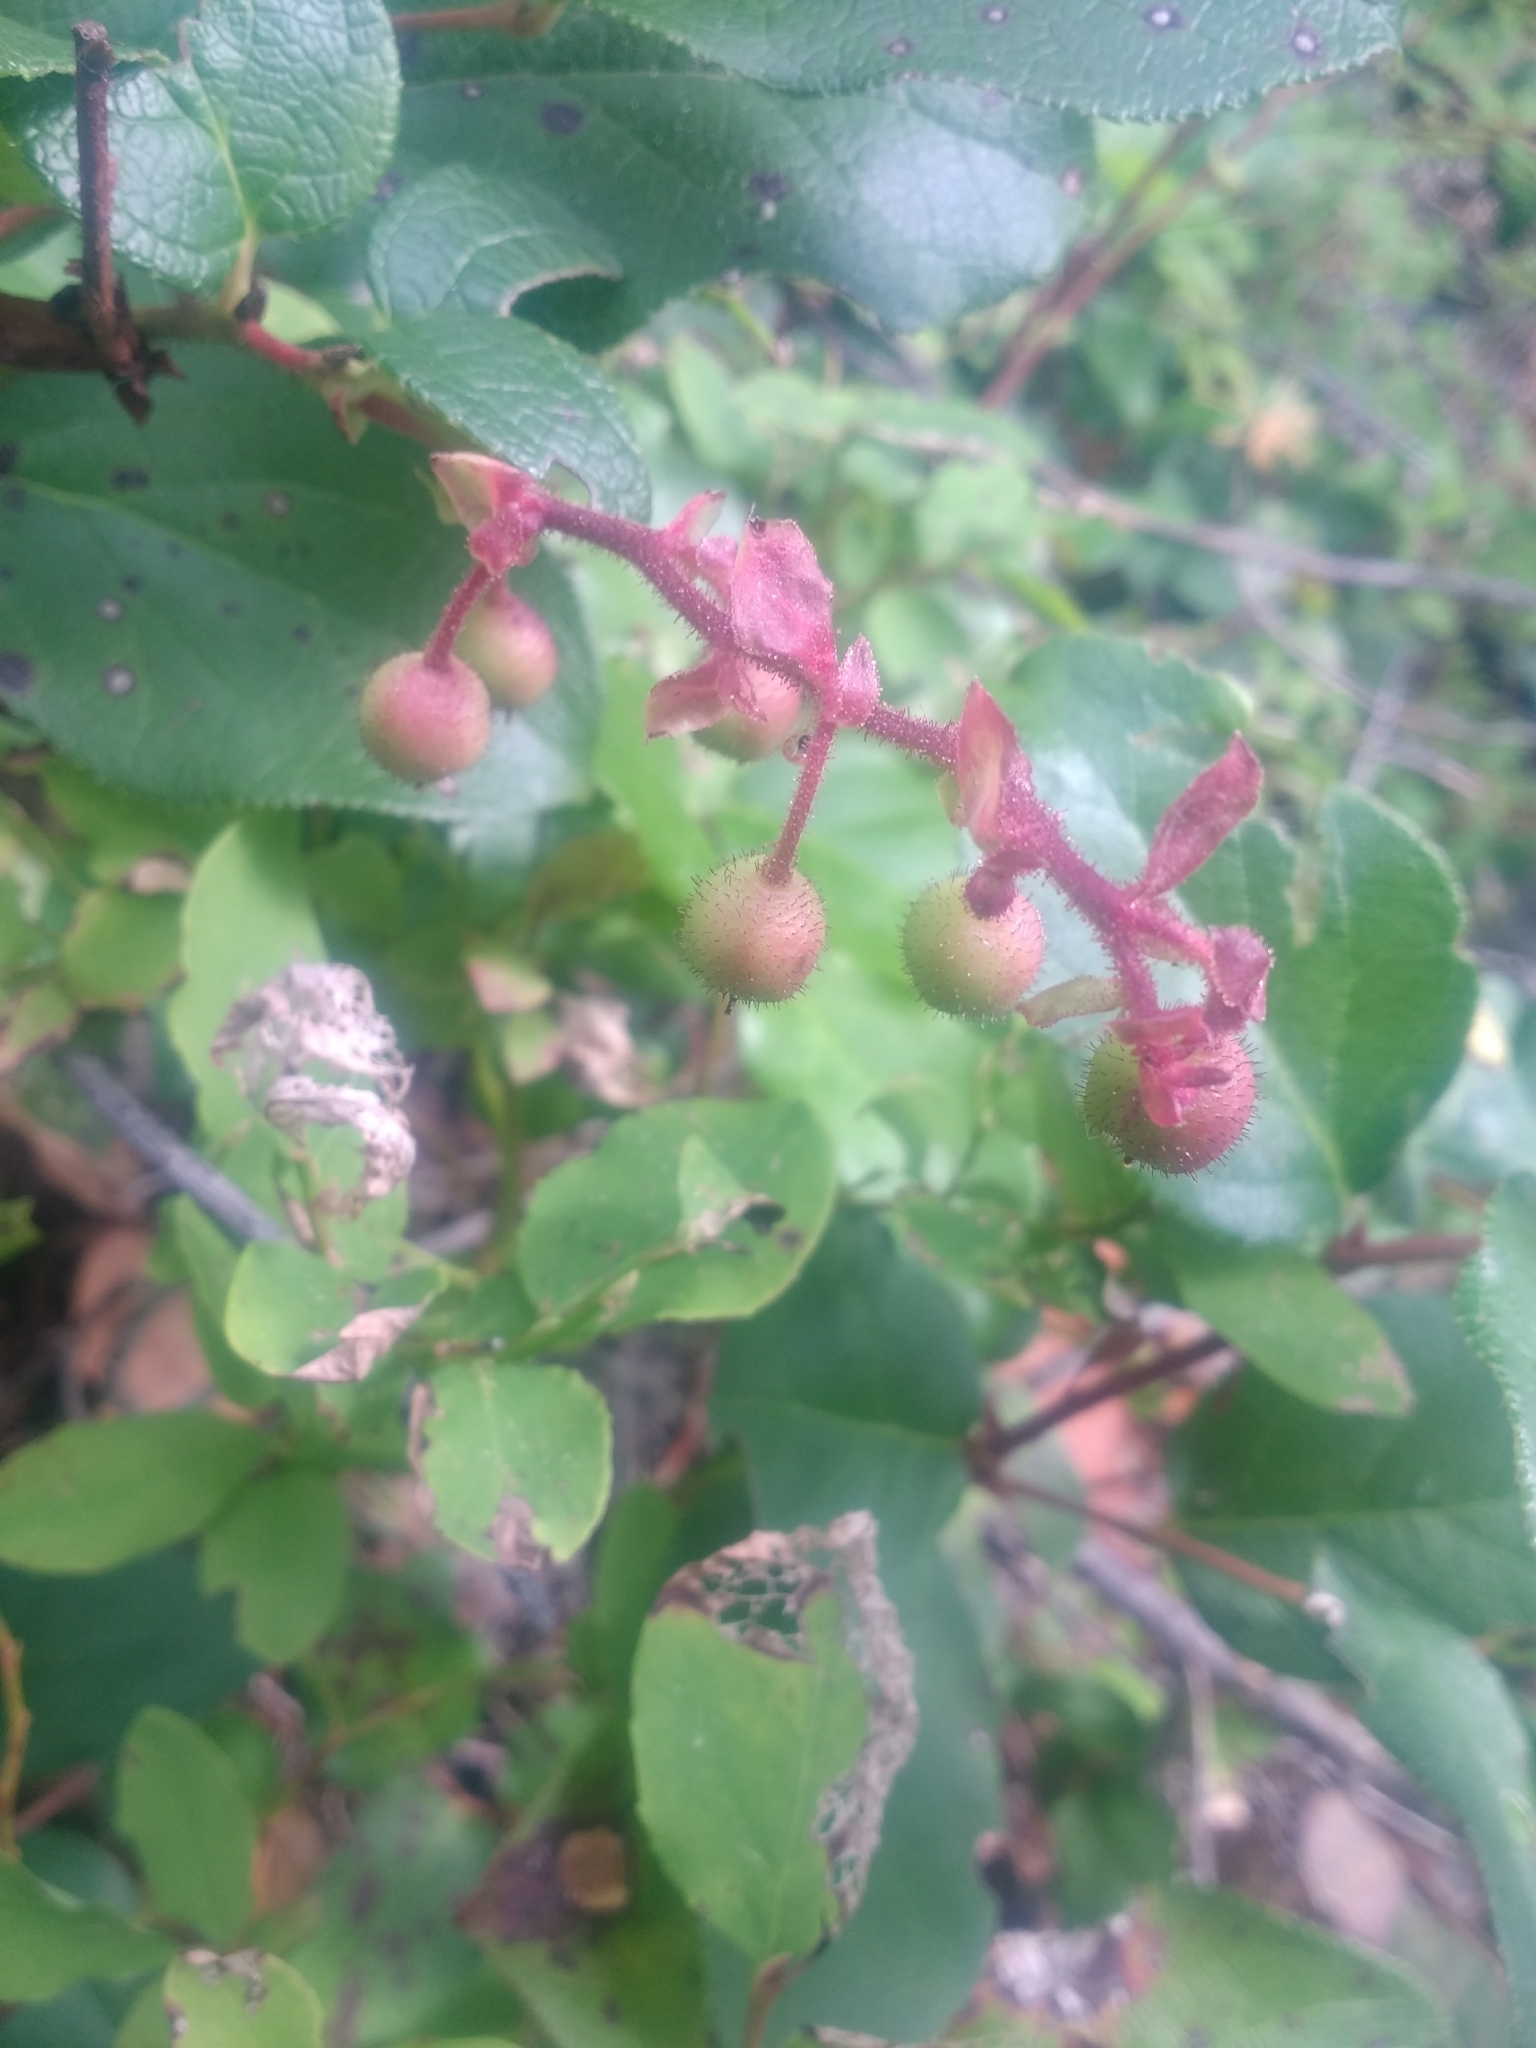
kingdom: Plantae
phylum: Tracheophyta
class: Magnoliopsida
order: Ericales
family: Ericaceae
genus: Gaultheria
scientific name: Gaultheria shallon
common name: Shallon
